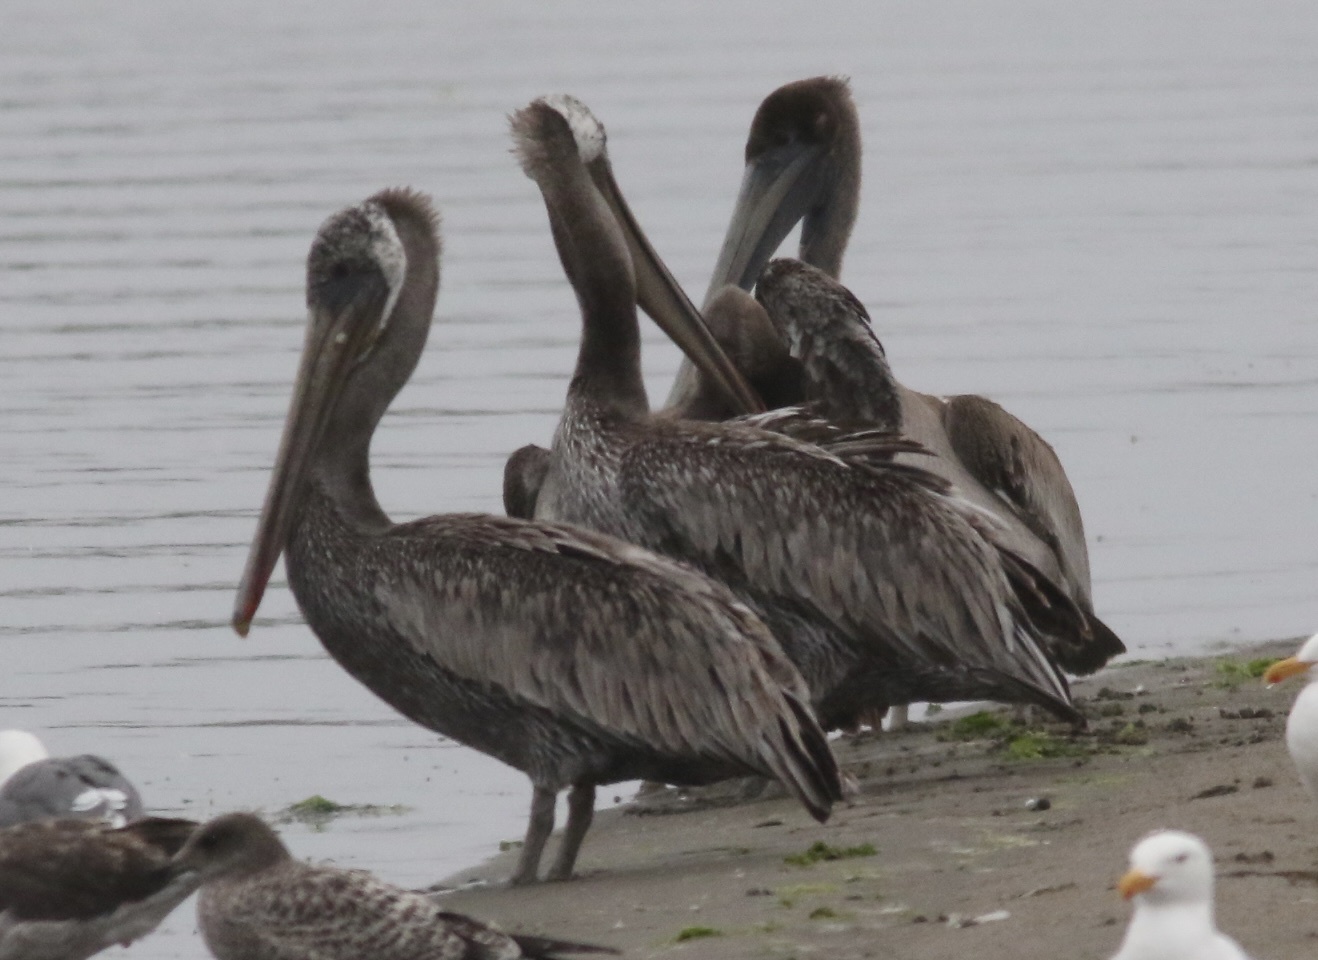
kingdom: Animalia
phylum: Chordata
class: Aves
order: Pelecaniformes
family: Pelecanidae
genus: Pelecanus
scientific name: Pelecanus occidentalis
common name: Brown pelican
